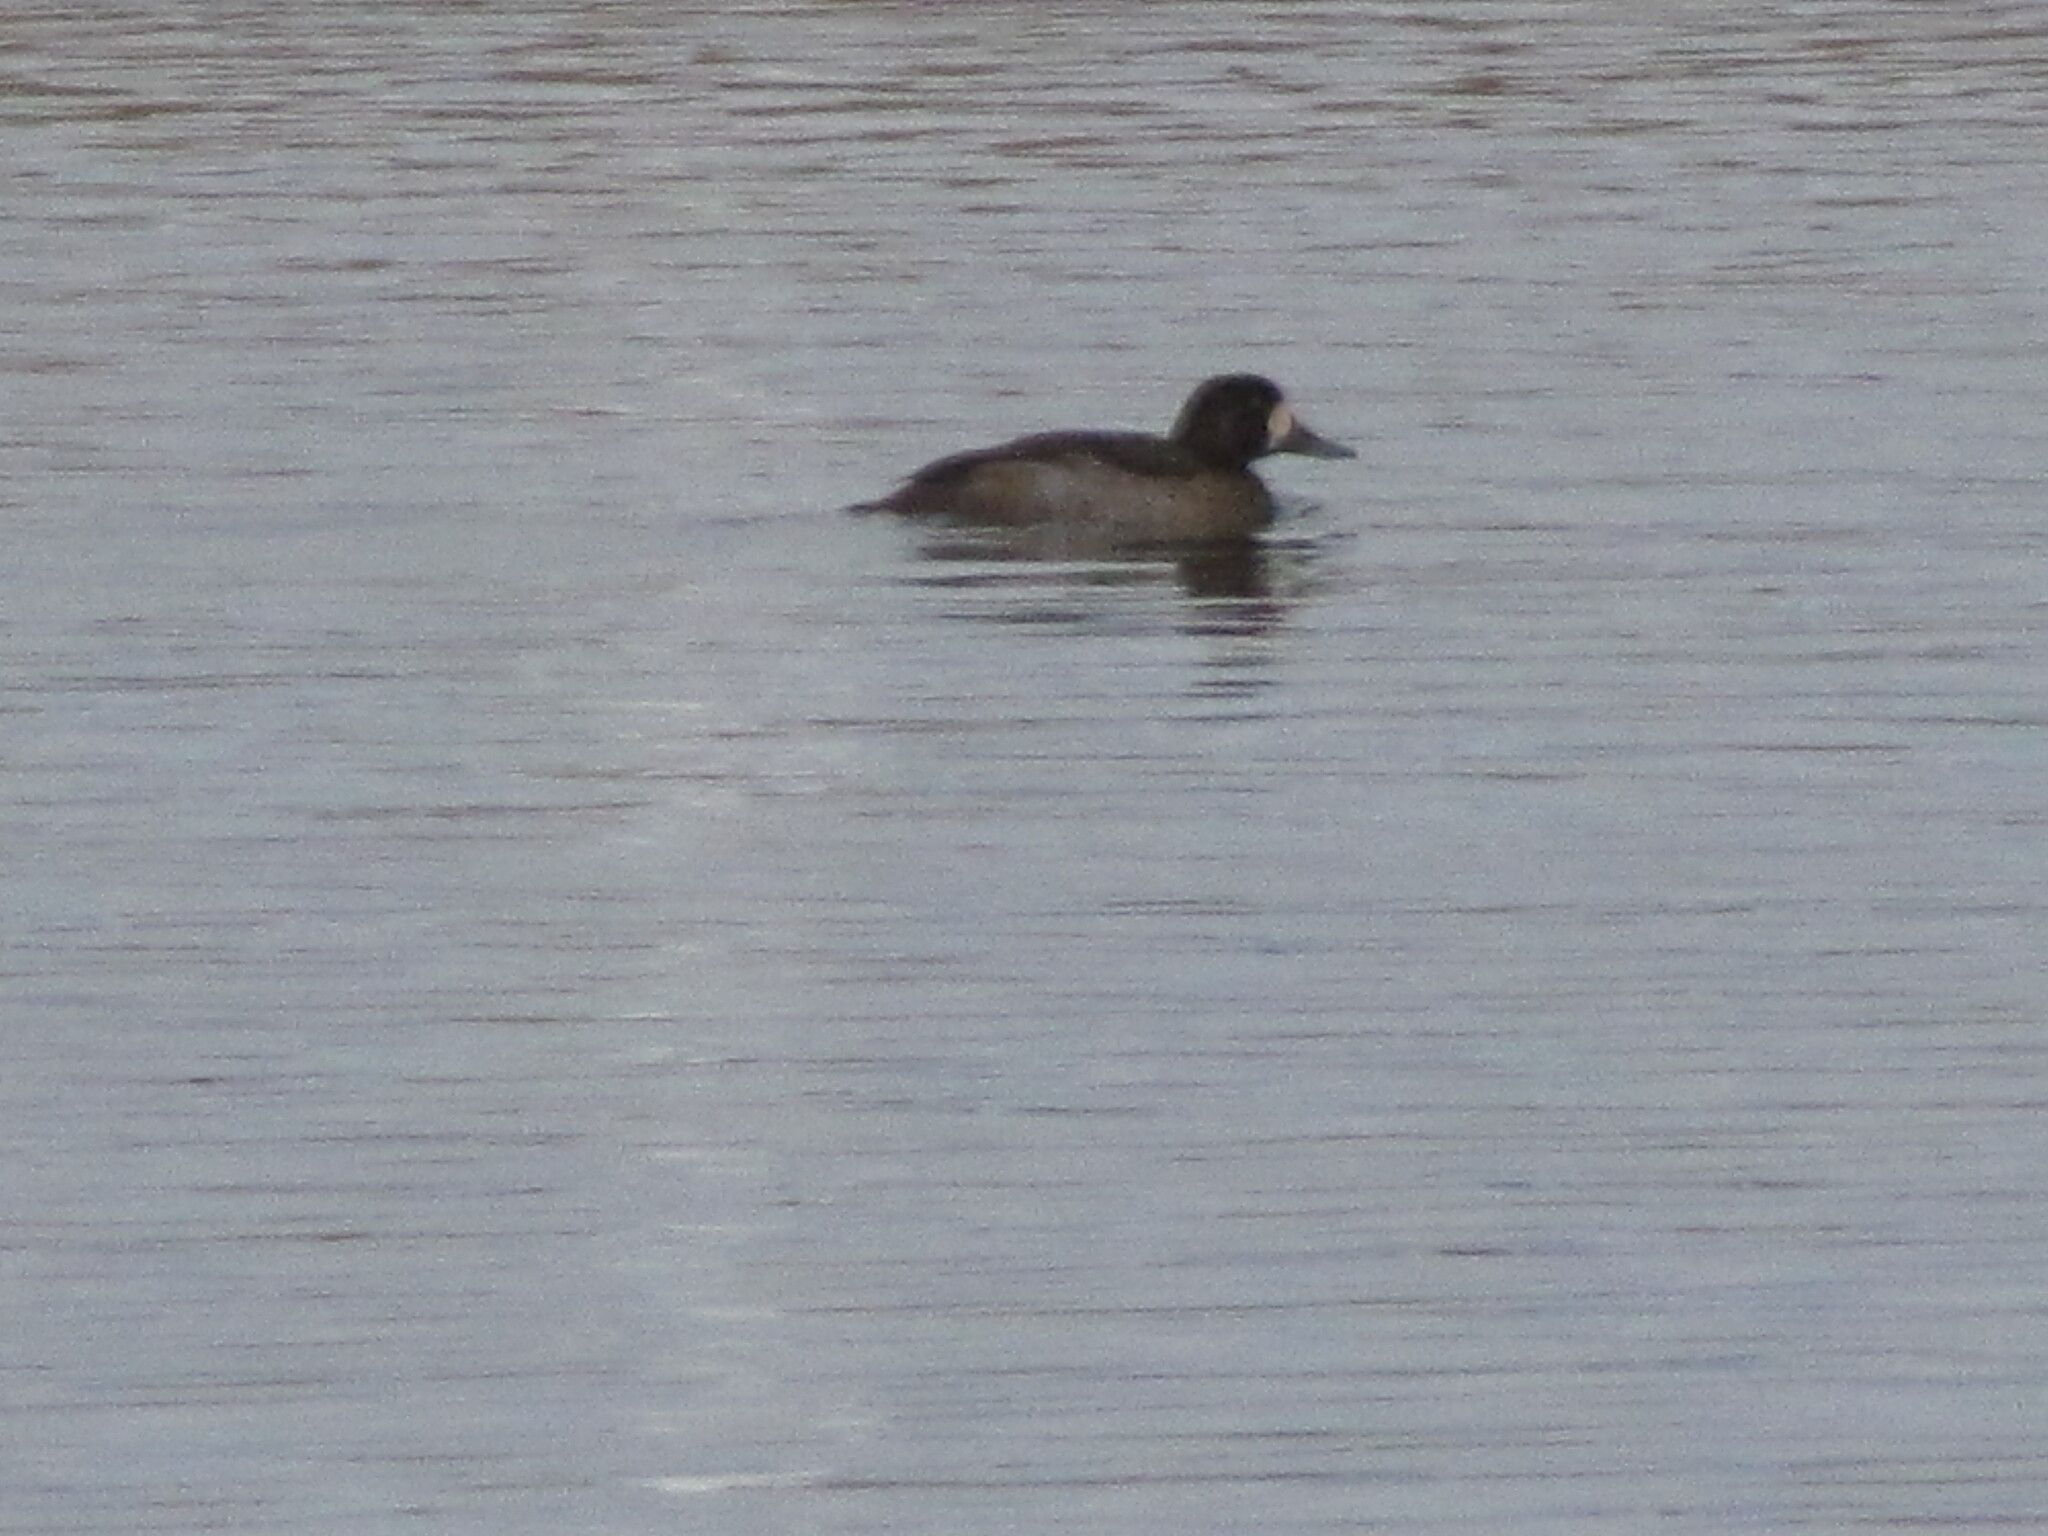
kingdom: Animalia
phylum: Chordata
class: Aves
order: Anseriformes
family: Anatidae
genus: Aythya
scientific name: Aythya marila
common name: Greater scaup
